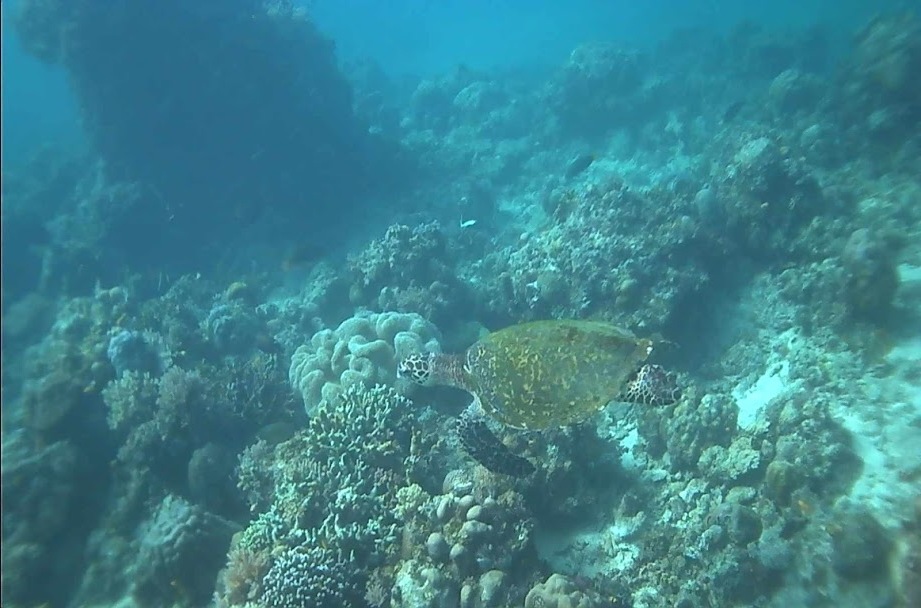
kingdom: Animalia
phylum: Chordata
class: Testudines
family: Cheloniidae
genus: Eretmochelys
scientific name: Eretmochelys imbricata
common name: Hawksbill turtle
